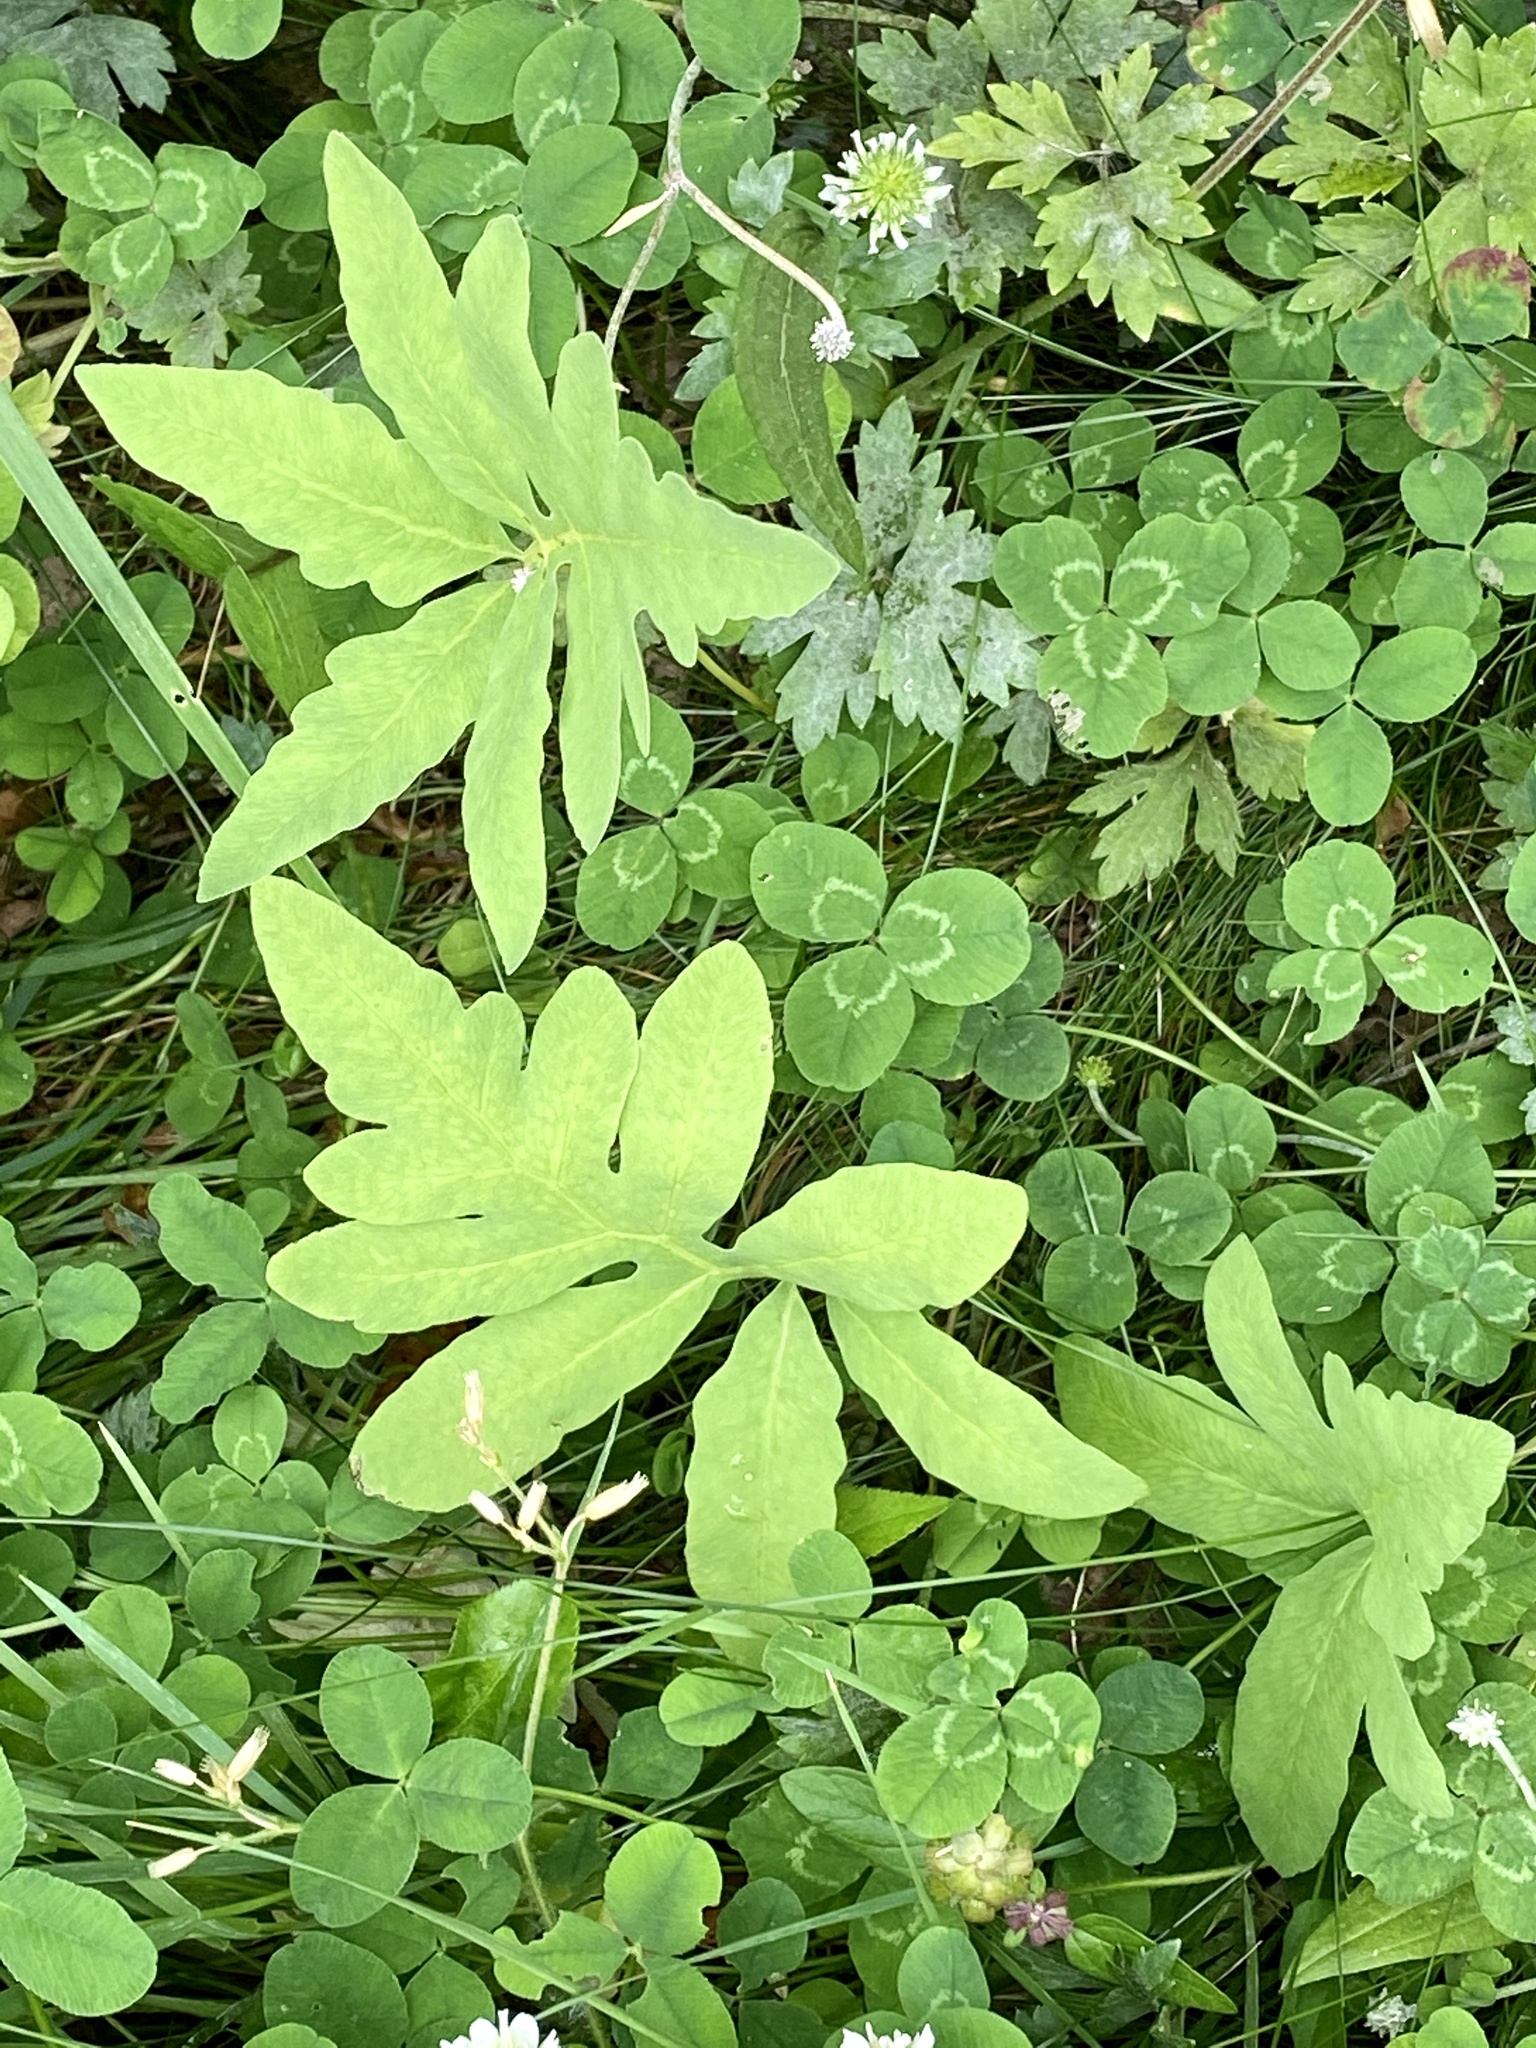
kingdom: Plantae
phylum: Tracheophyta
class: Polypodiopsida
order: Polypodiales
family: Onocleaceae
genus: Onoclea
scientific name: Onoclea sensibilis
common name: Sensitive fern
